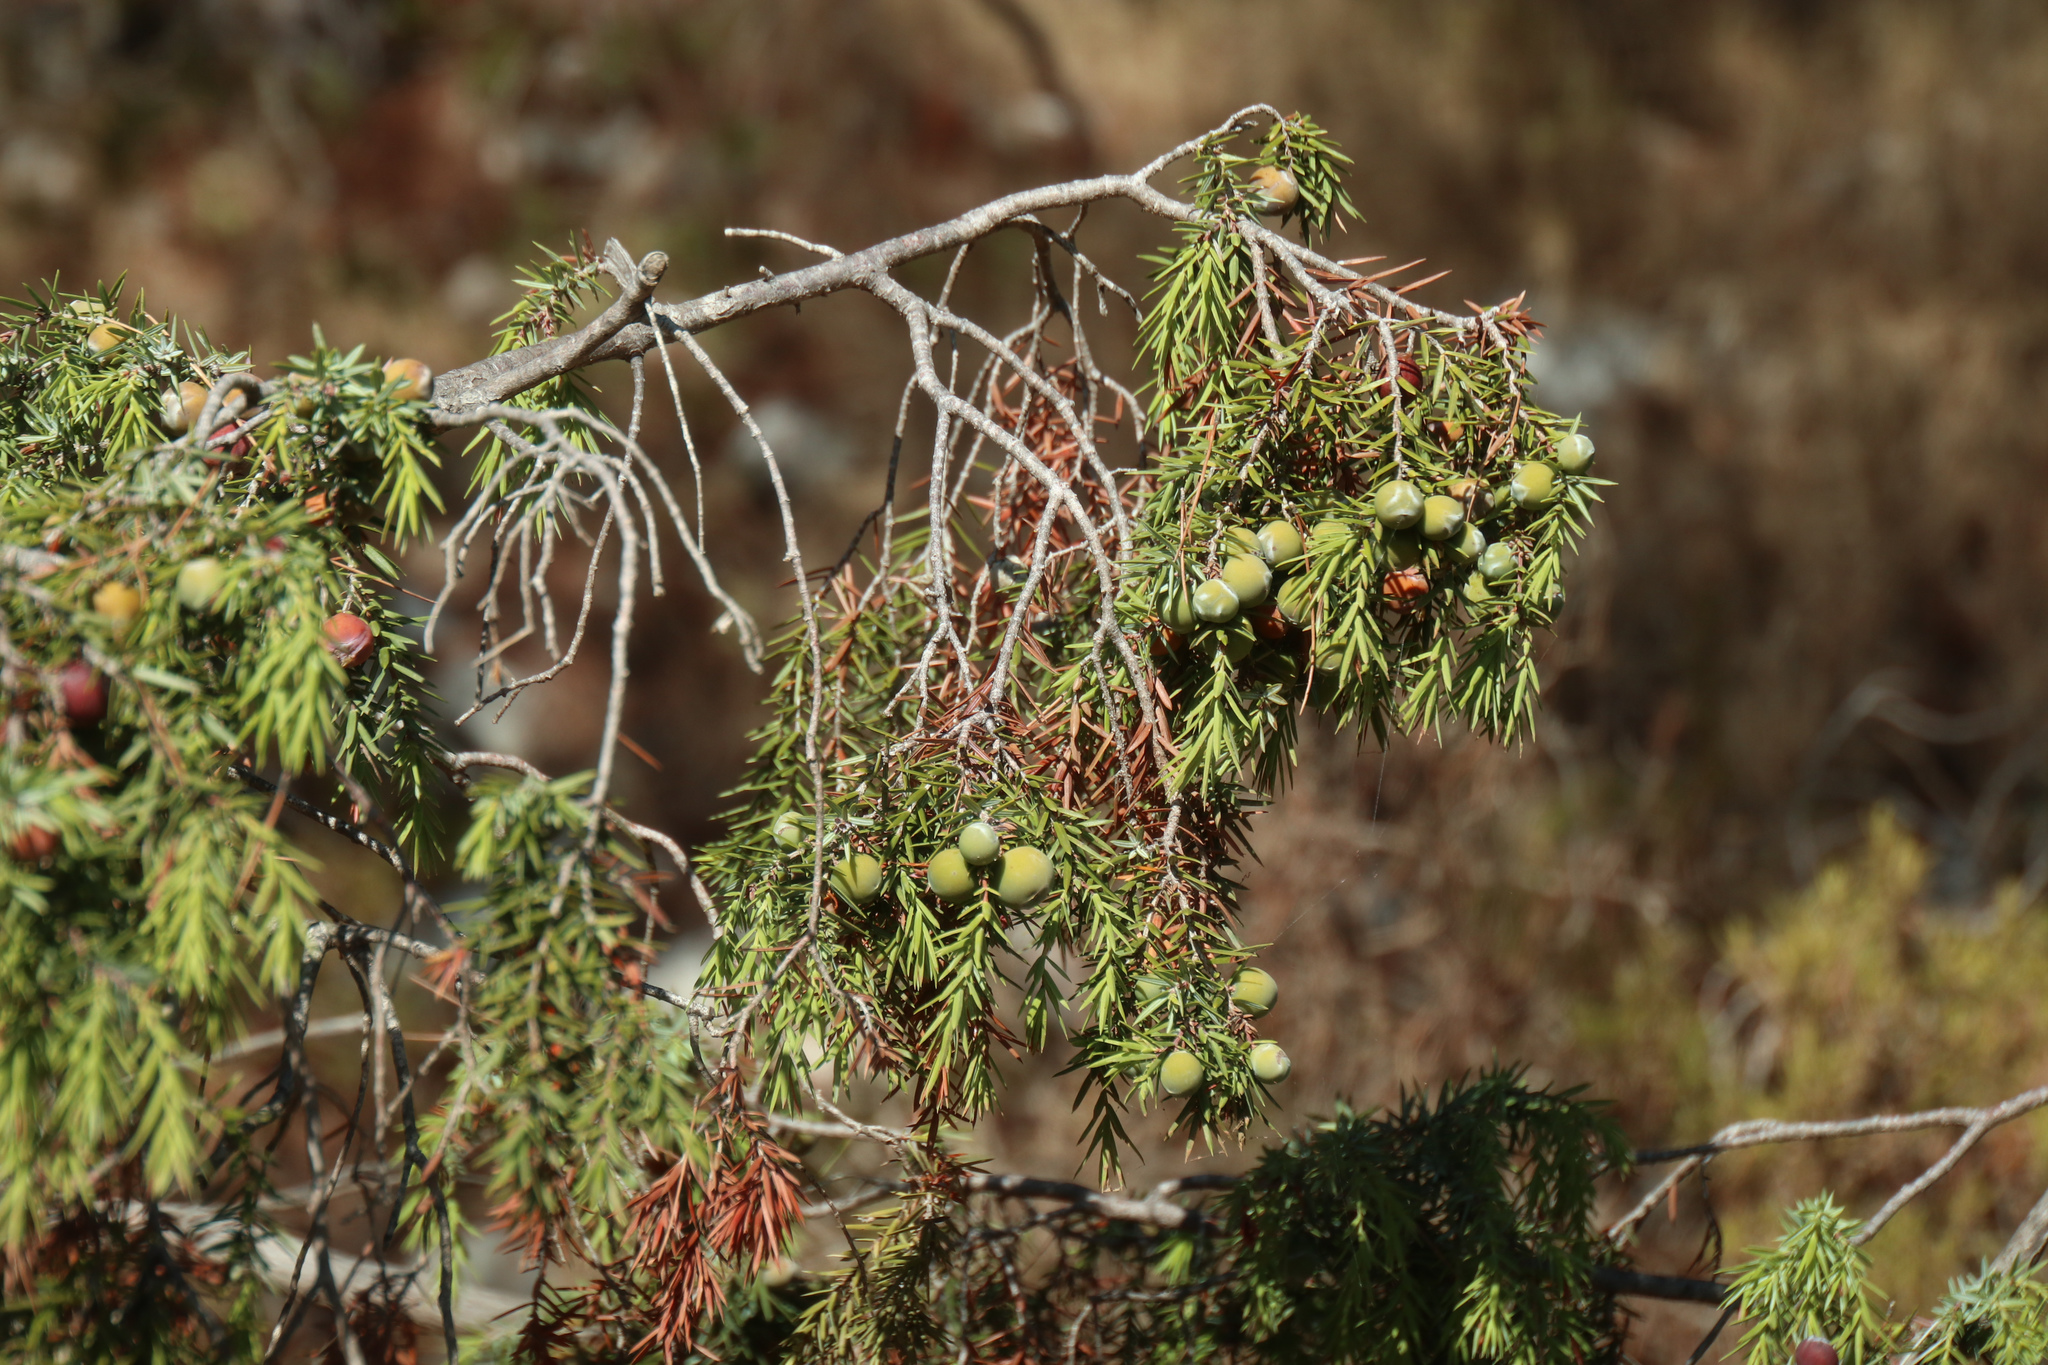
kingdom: Plantae
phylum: Tracheophyta
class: Pinopsida
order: Pinales
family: Cupressaceae
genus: Juniperus
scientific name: Juniperus oxycedrus
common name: Prickly juniper
